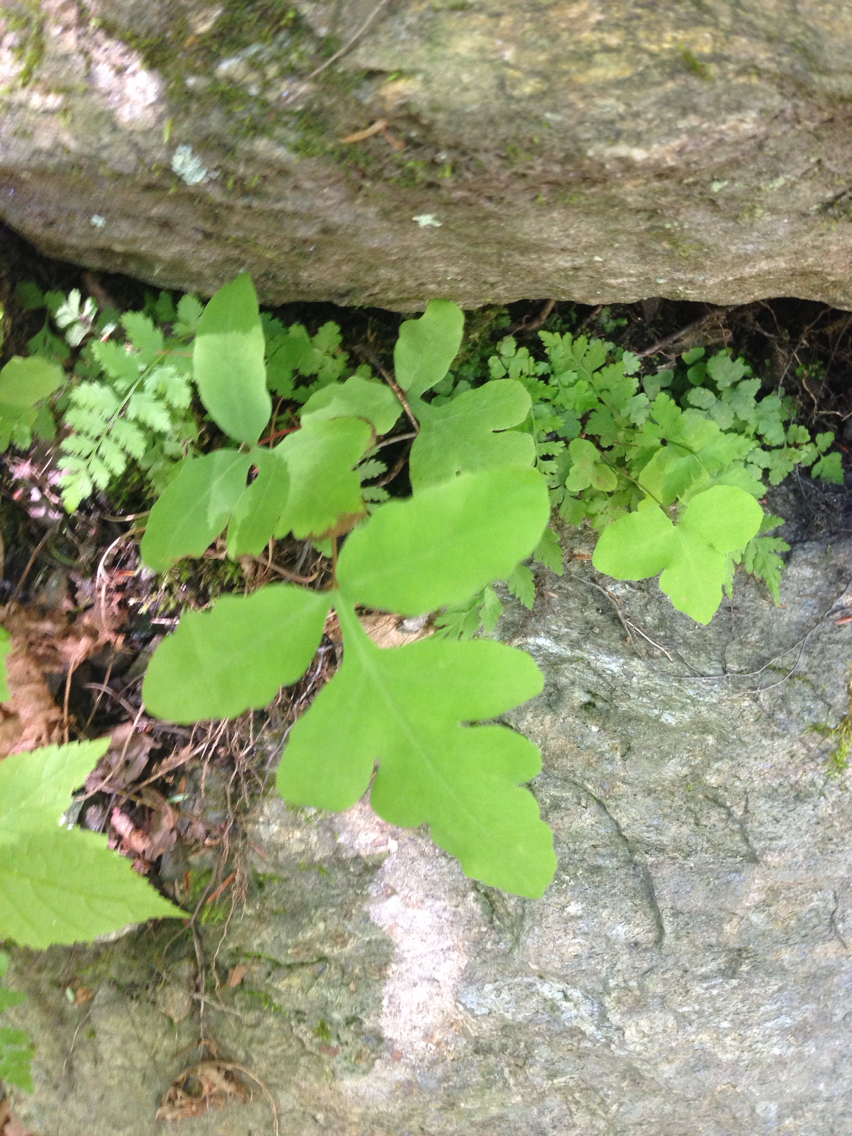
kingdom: Plantae
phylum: Tracheophyta
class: Polypodiopsida
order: Polypodiales
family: Onocleaceae
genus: Onoclea
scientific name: Onoclea sensibilis
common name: Sensitive fern
